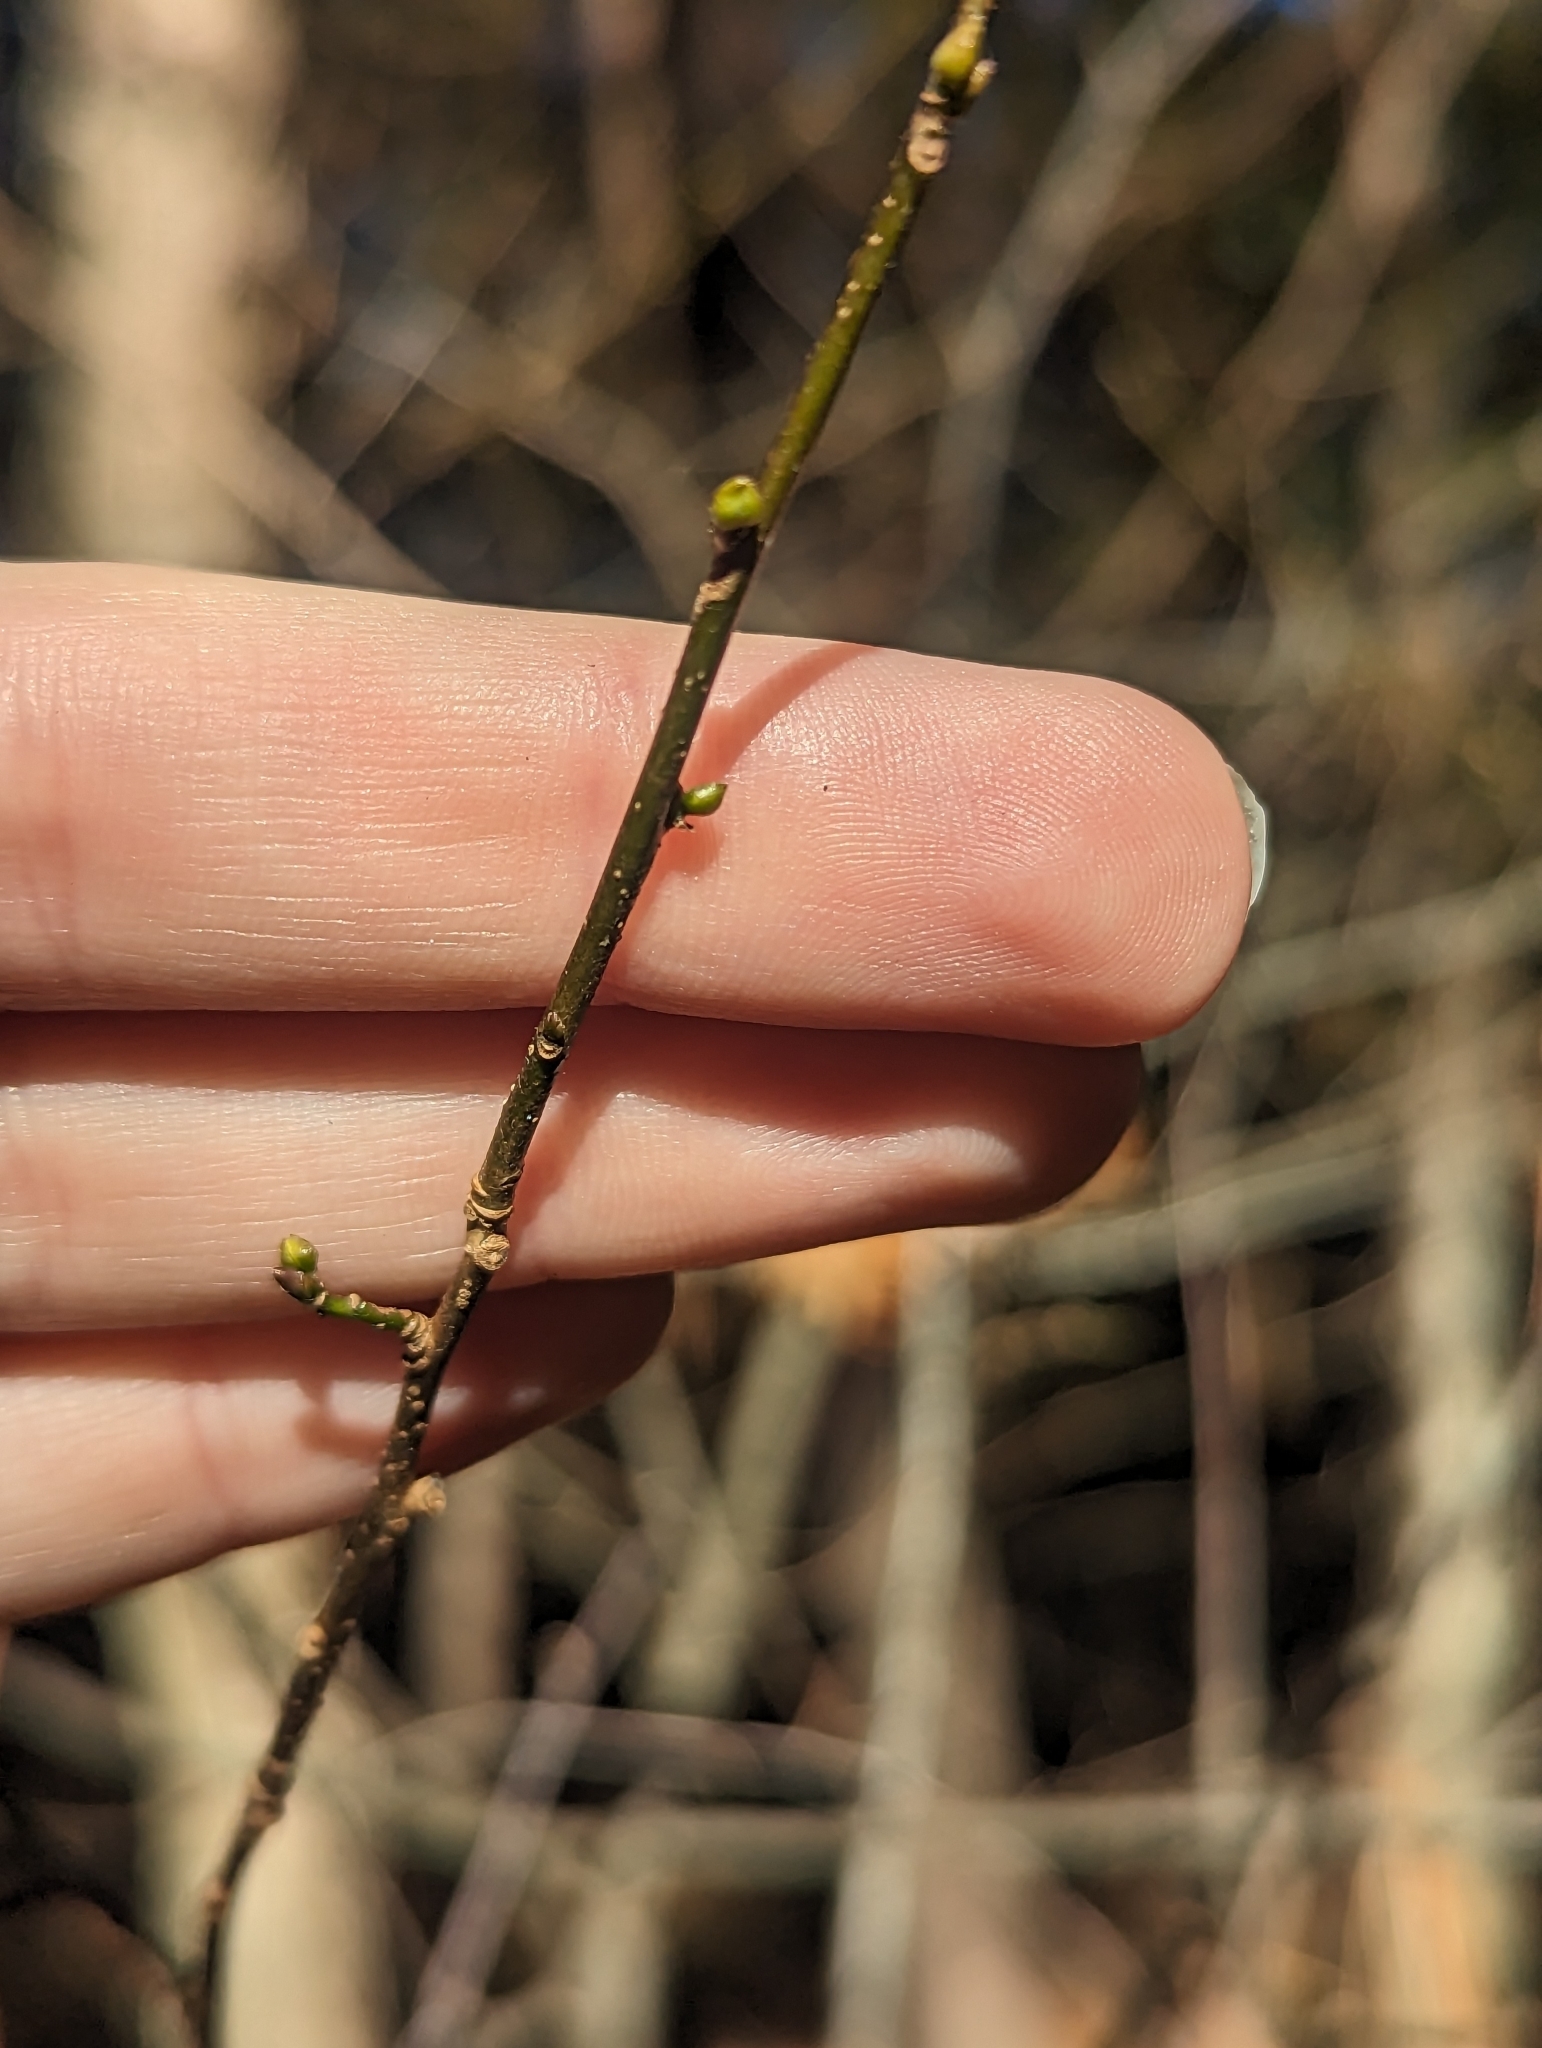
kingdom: Plantae
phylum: Tracheophyta
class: Magnoliopsida
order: Laurales
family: Lauraceae
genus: Lindera
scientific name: Lindera benzoin
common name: Spicebush
